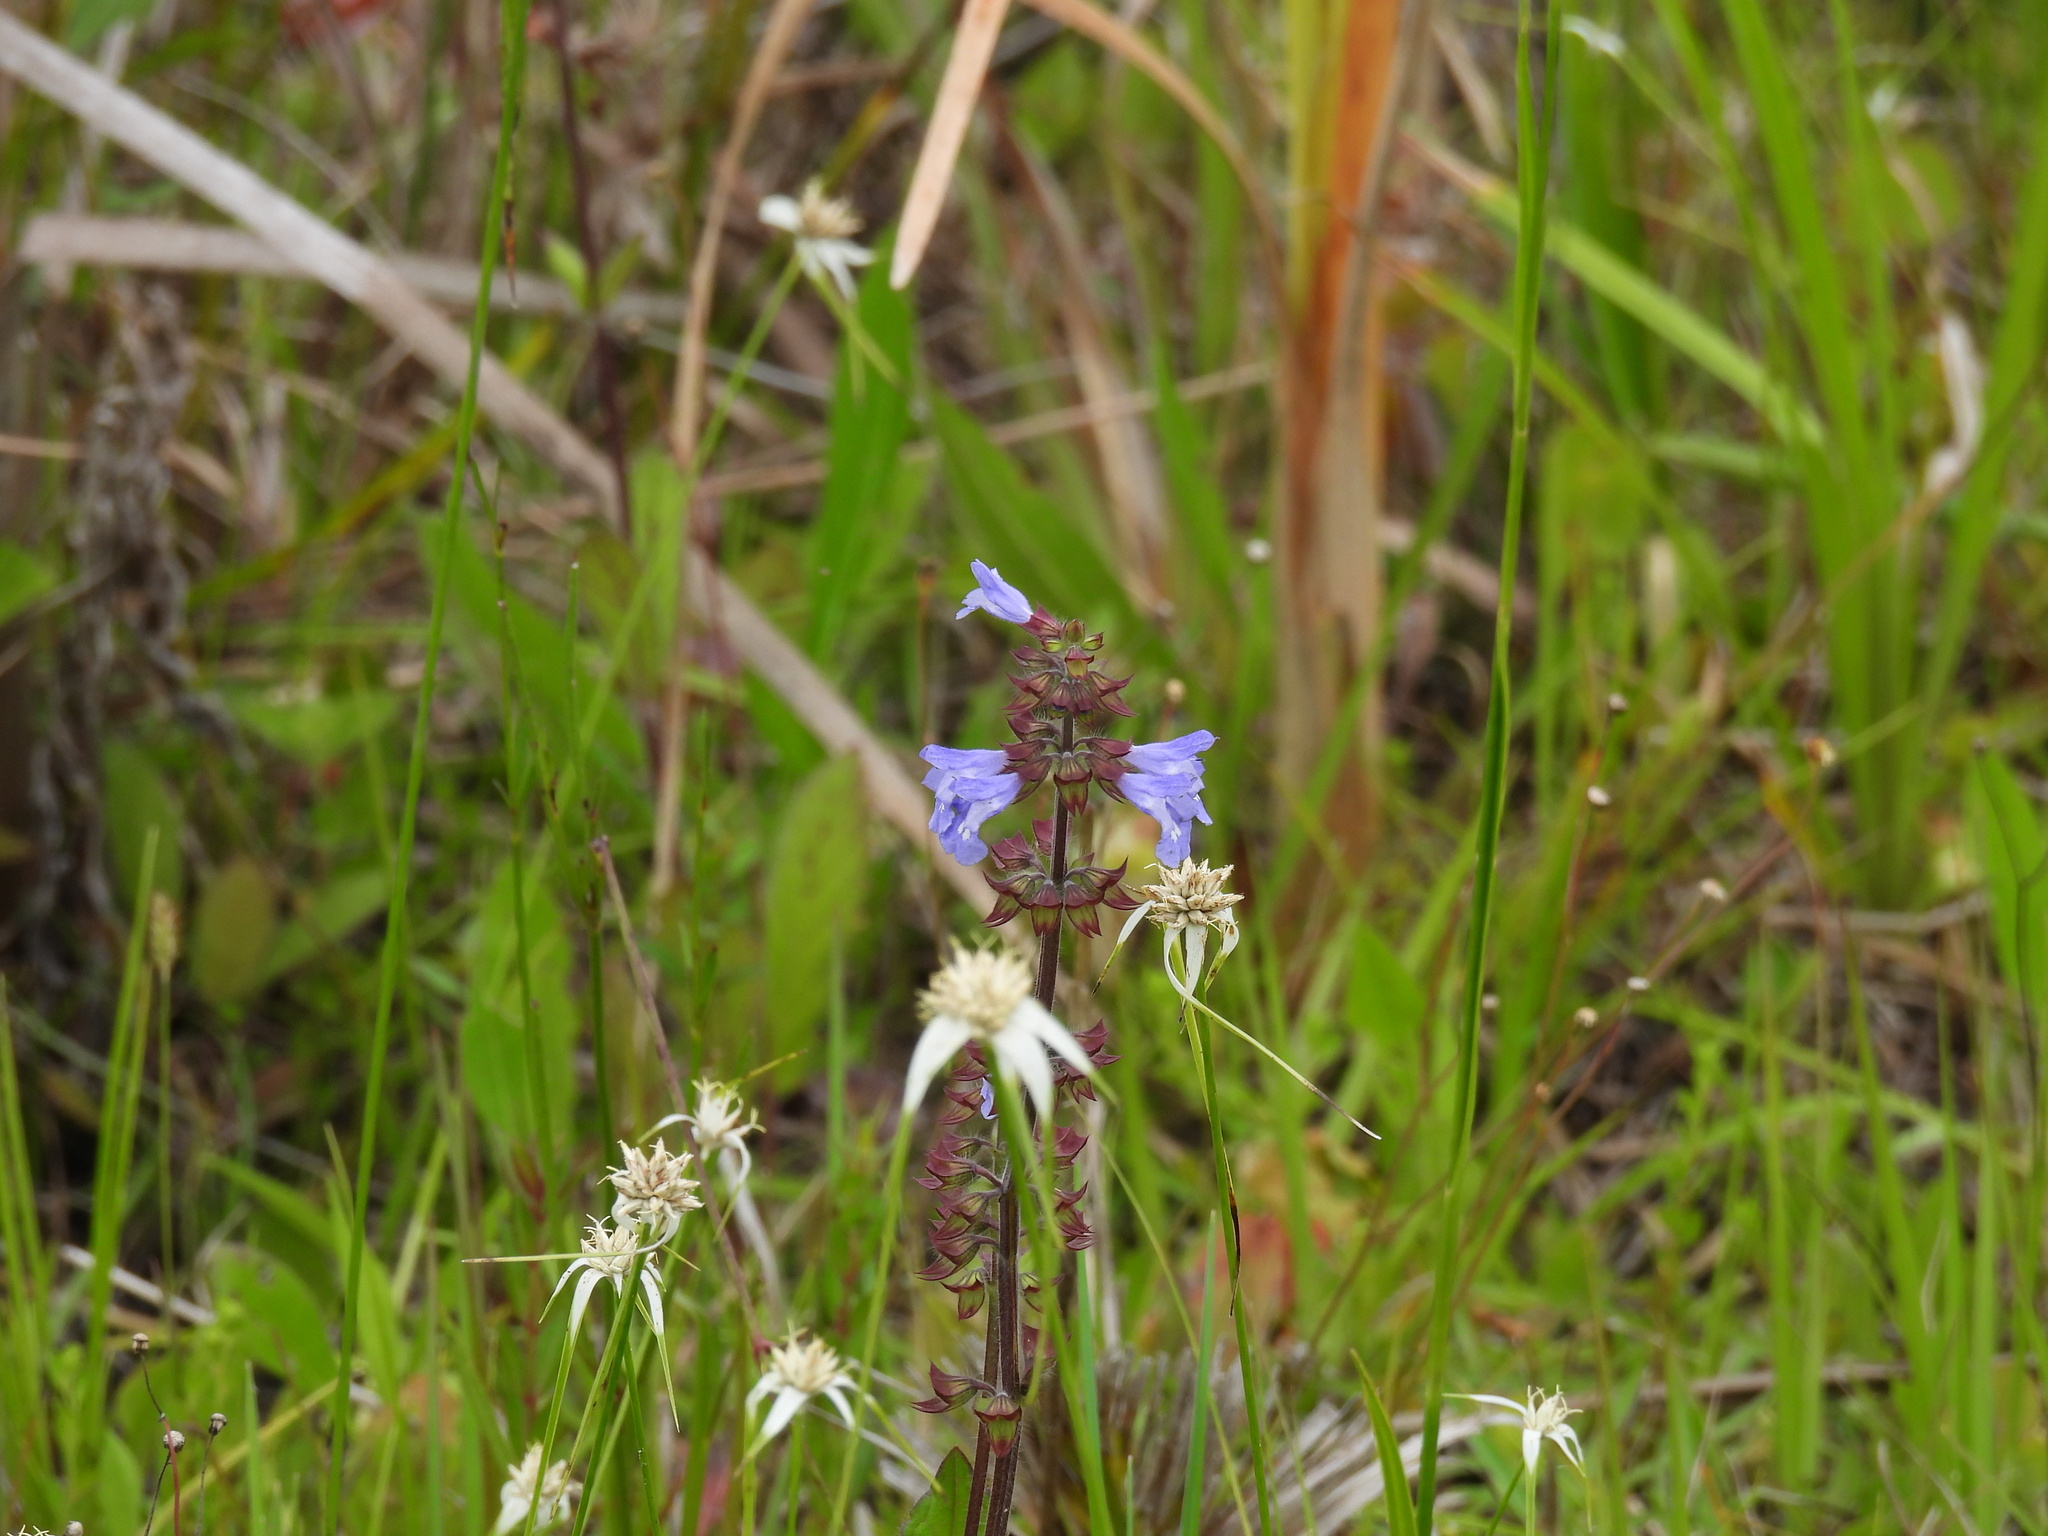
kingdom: Plantae
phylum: Tracheophyta
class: Magnoliopsida
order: Lamiales
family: Lamiaceae
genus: Salvia
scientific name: Salvia lyrata
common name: Cancerweed
